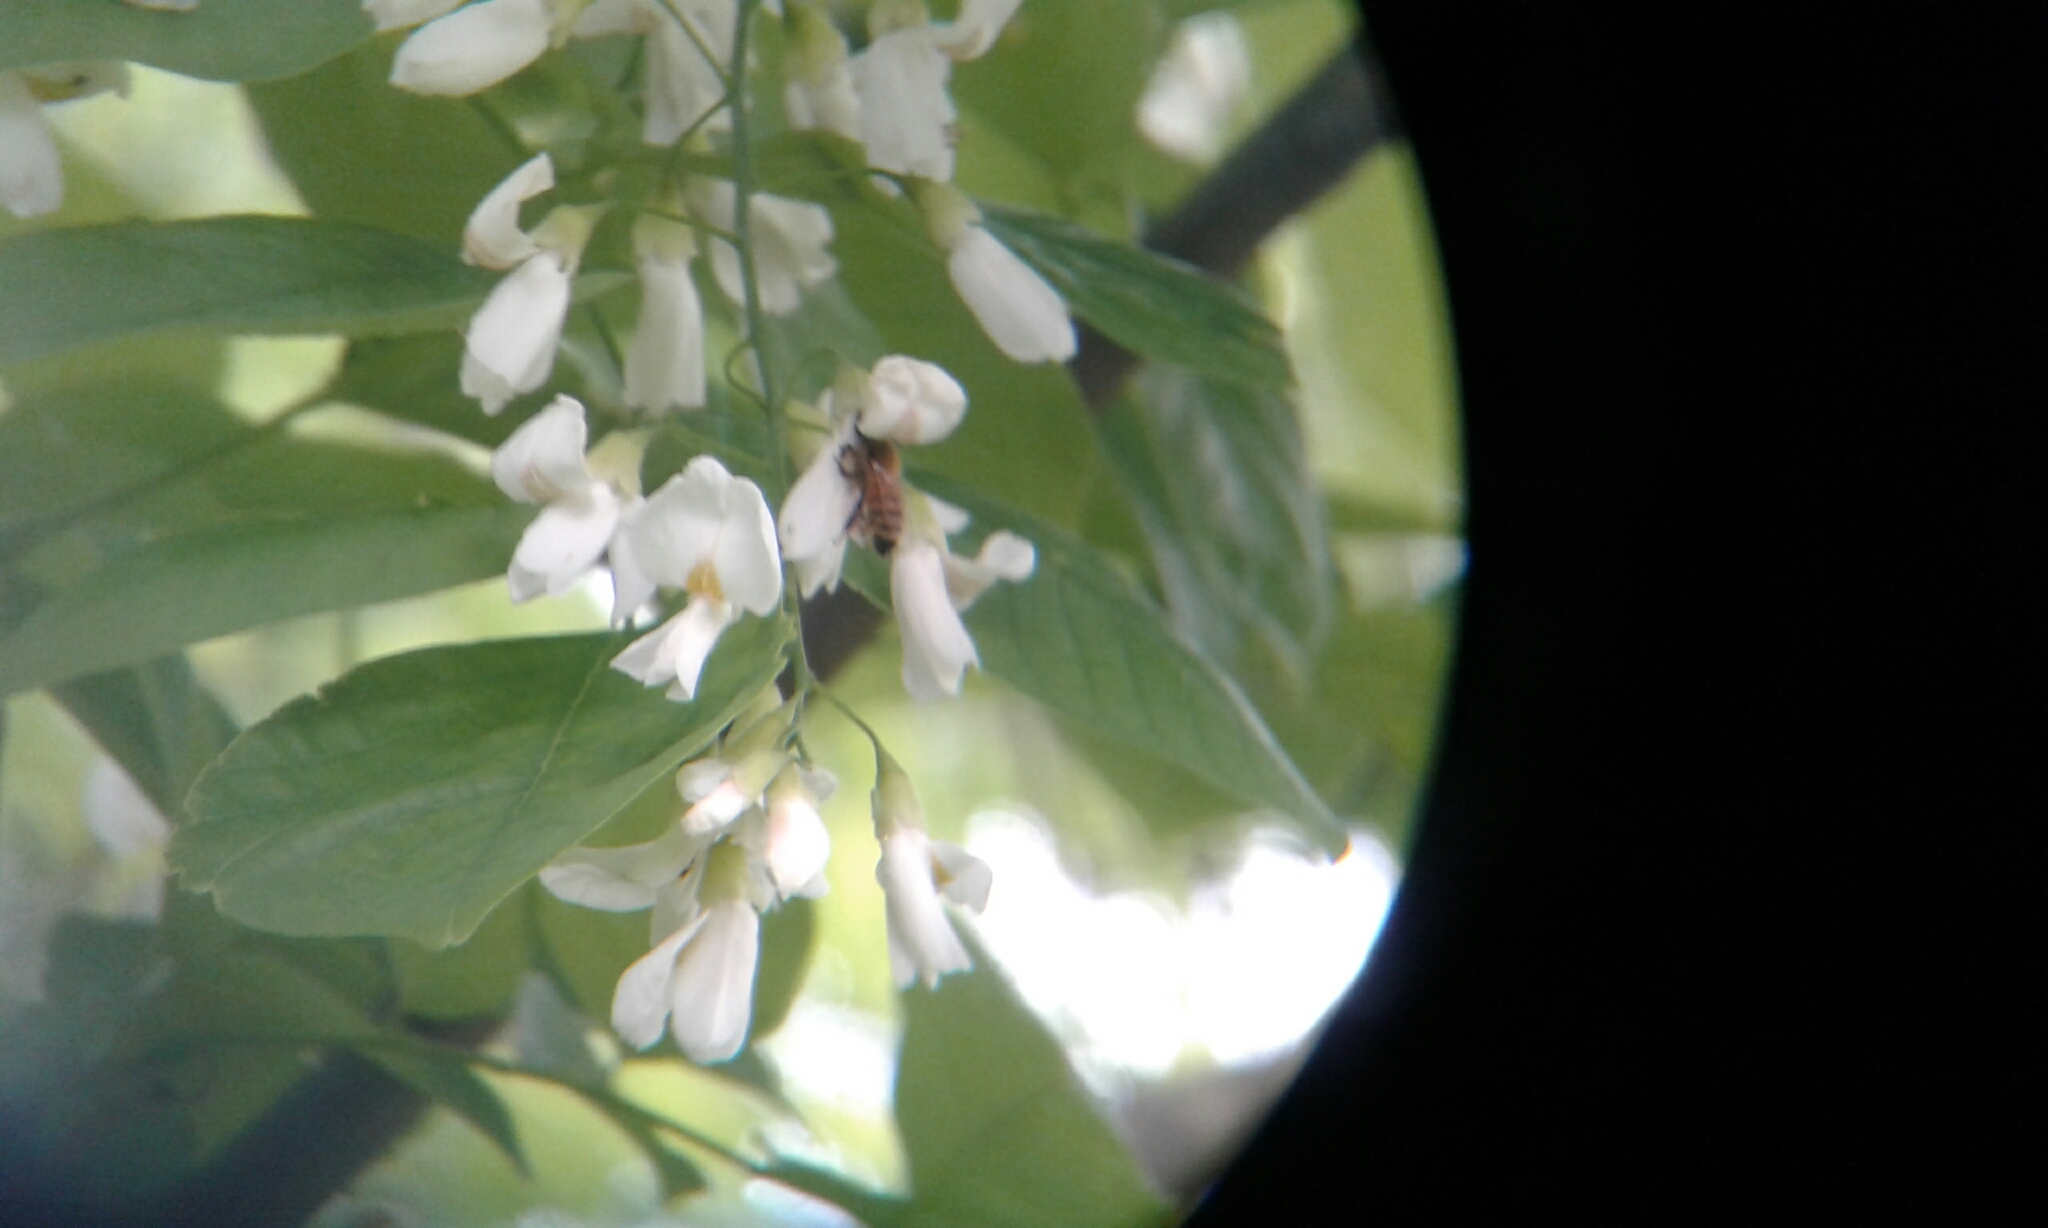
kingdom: Animalia
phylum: Arthropoda
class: Insecta
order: Hymenoptera
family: Apidae
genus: Apis
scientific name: Apis mellifera
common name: Honey bee
